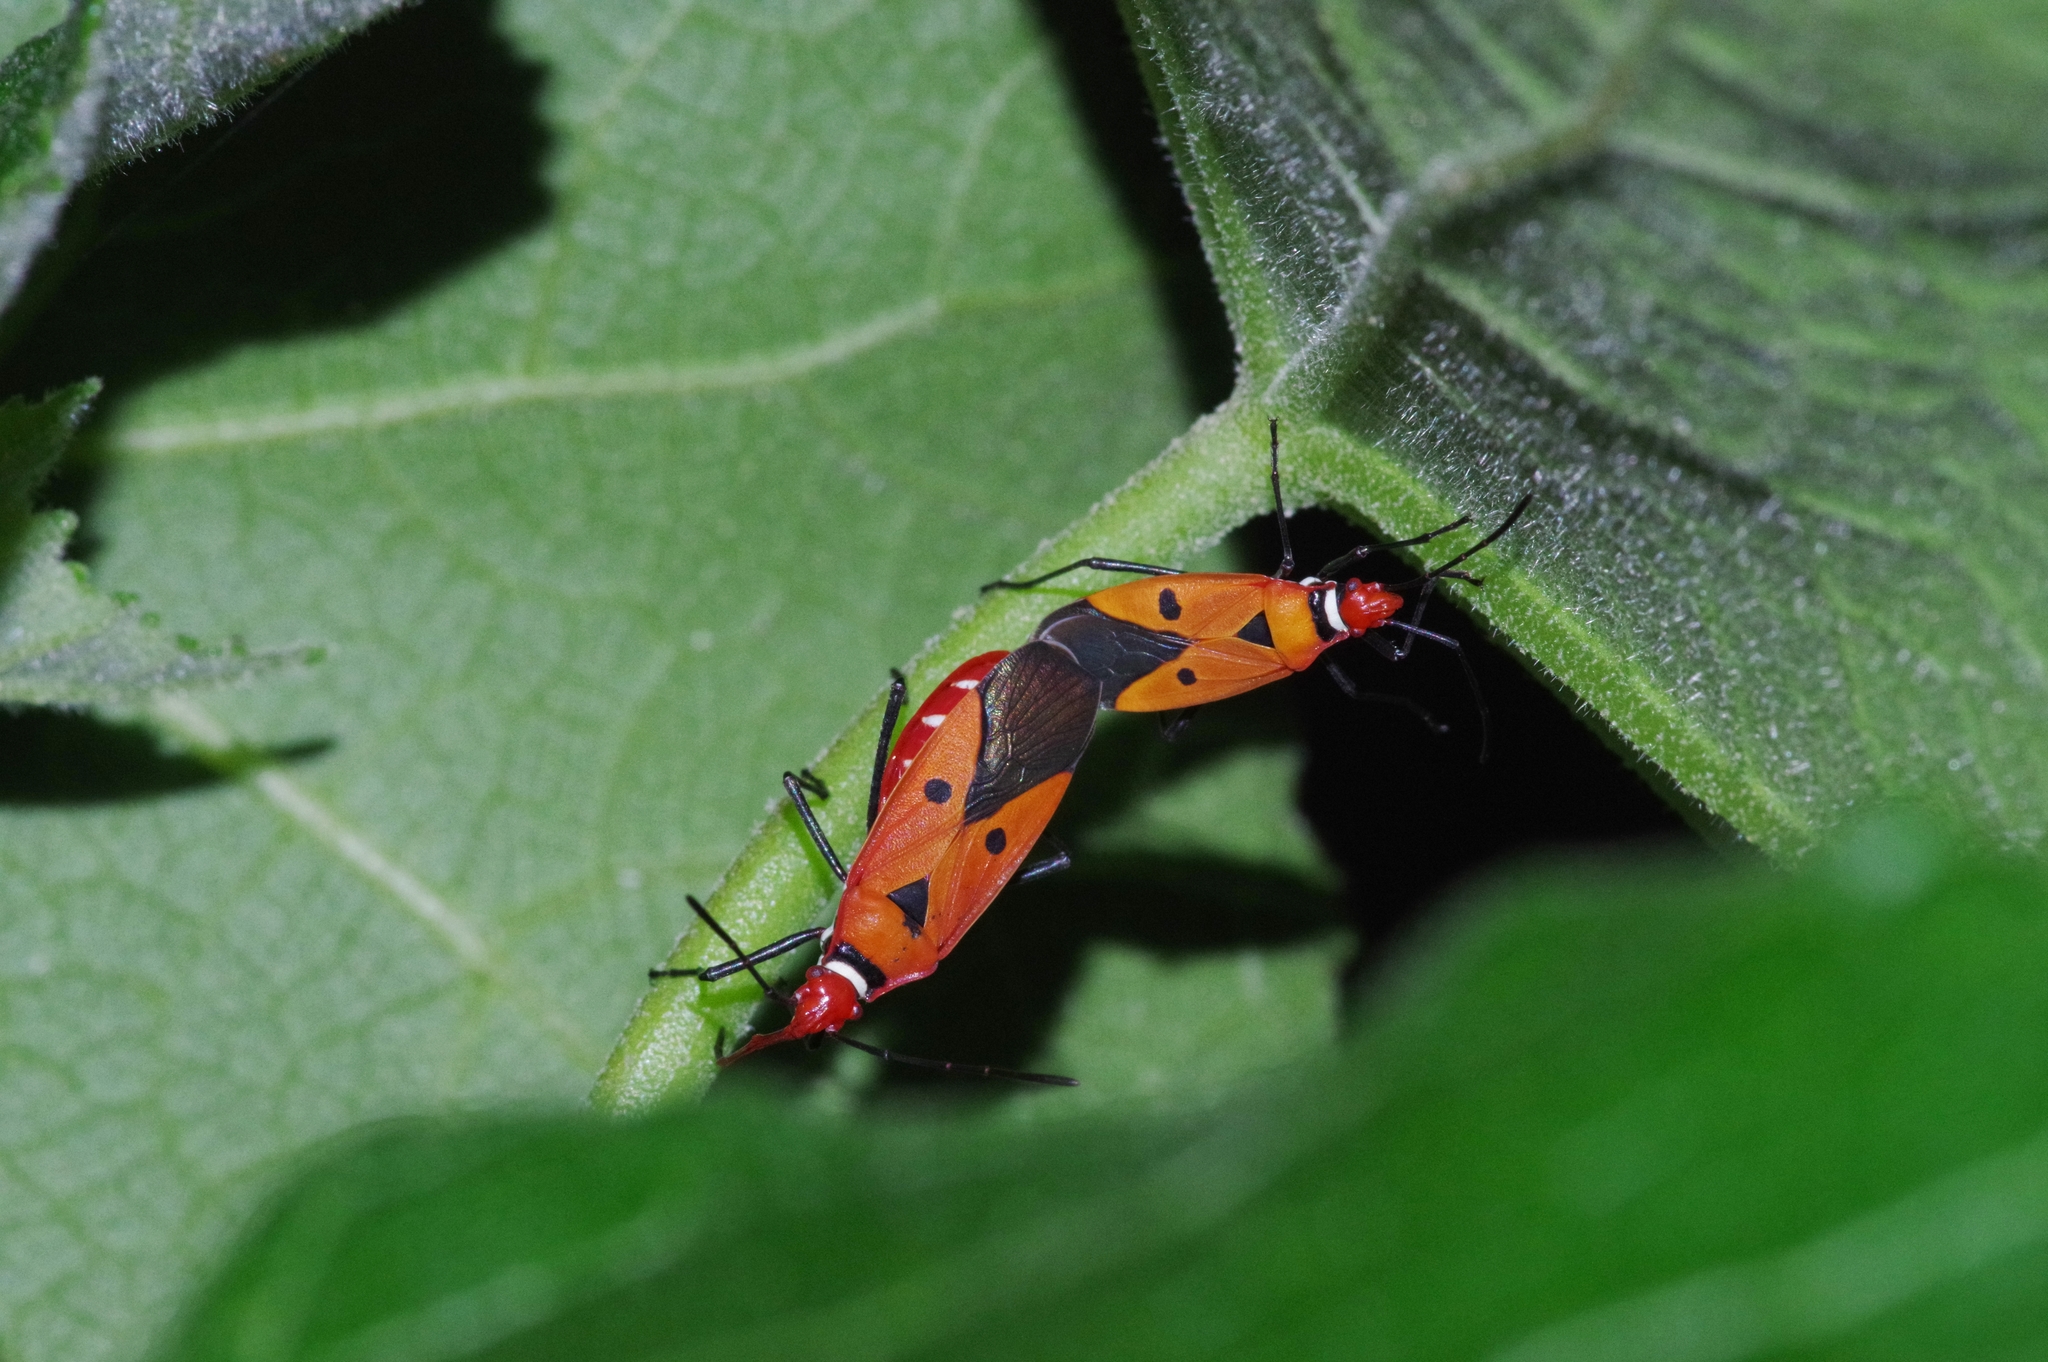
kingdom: Animalia
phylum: Arthropoda
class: Insecta
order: Hemiptera
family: Pyrrhocoridae
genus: Dysdercus
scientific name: Dysdercus cingulatus
